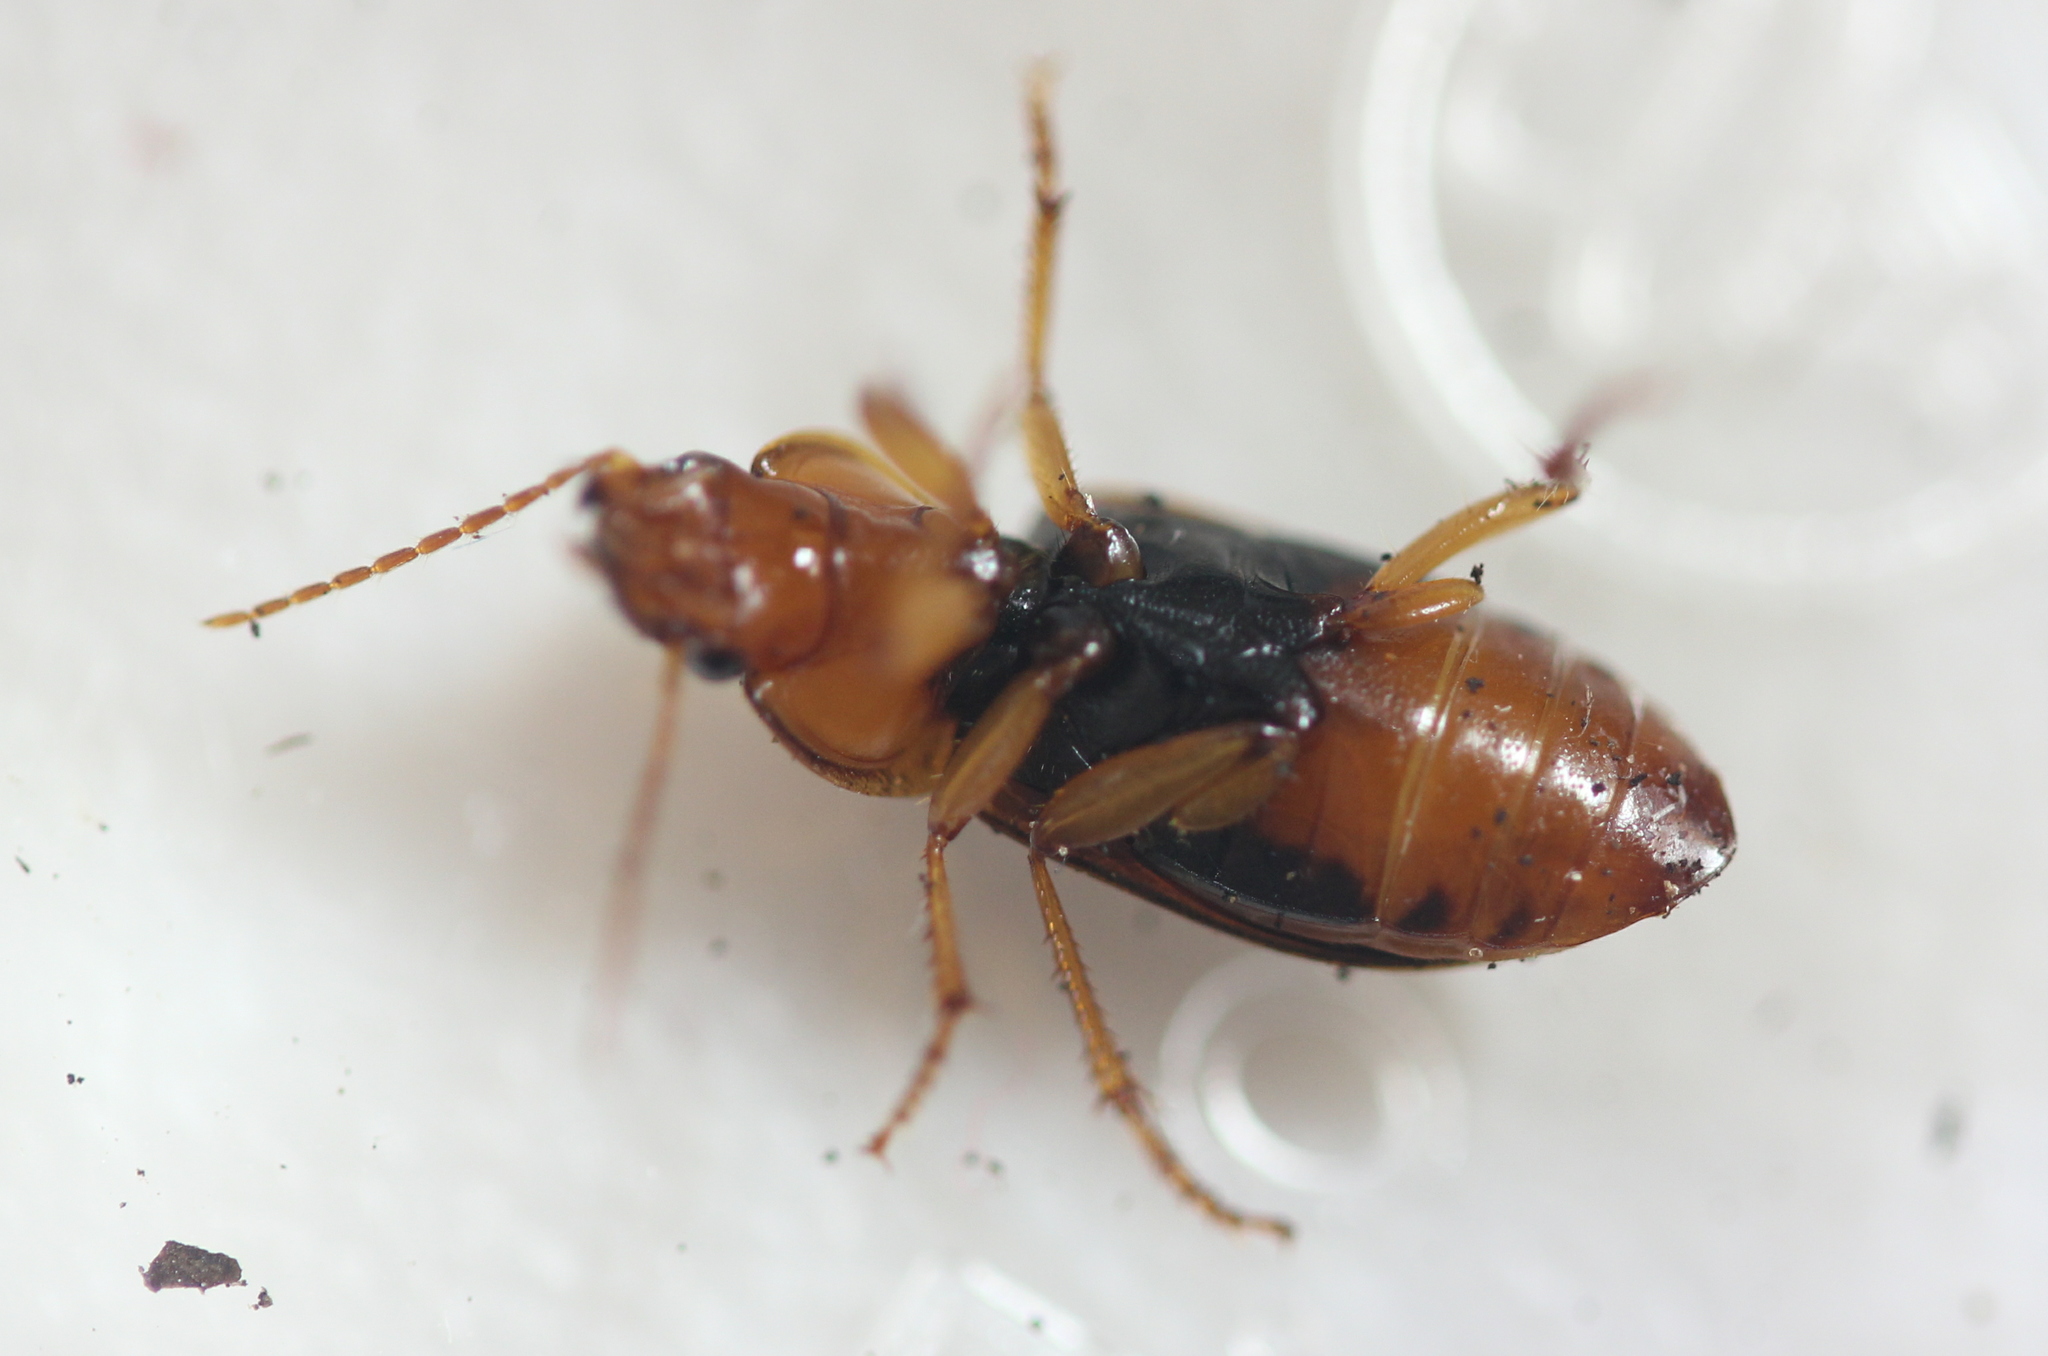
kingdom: Animalia
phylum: Arthropoda
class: Insecta
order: Coleoptera
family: Carabidae
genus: Amphasia
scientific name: Amphasia interstitialis
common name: Red-headed ground beetle
